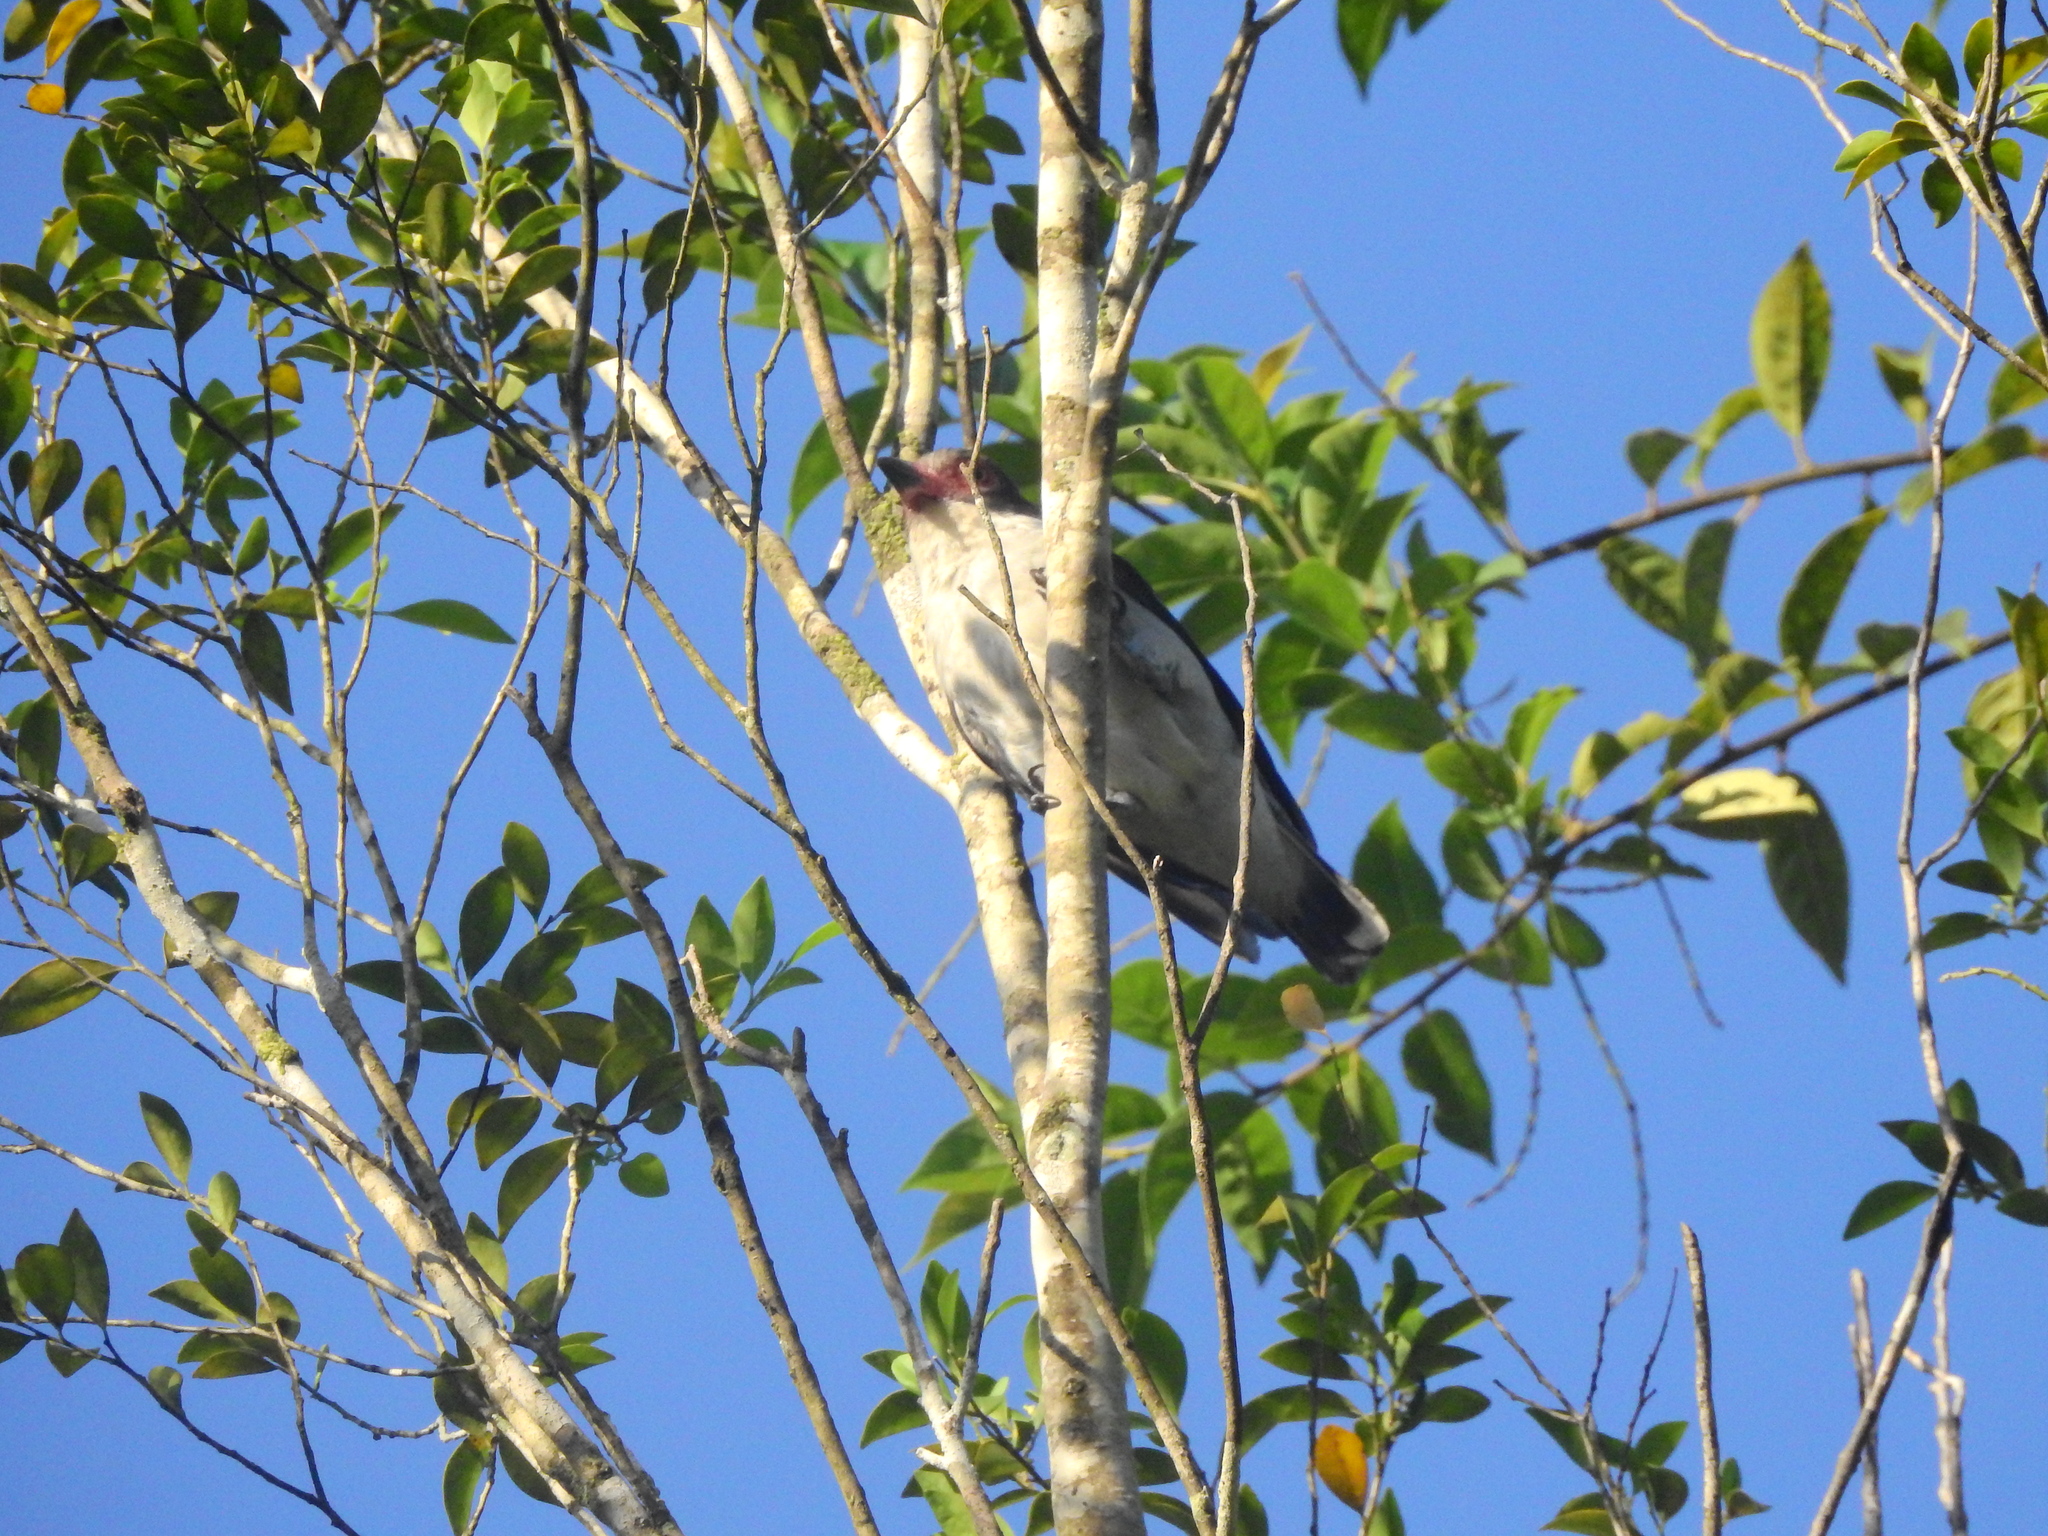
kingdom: Animalia
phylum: Chordata
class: Aves
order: Passeriformes
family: Cotingidae
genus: Tityra
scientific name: Tityra semifasciata
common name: Masked tityra
